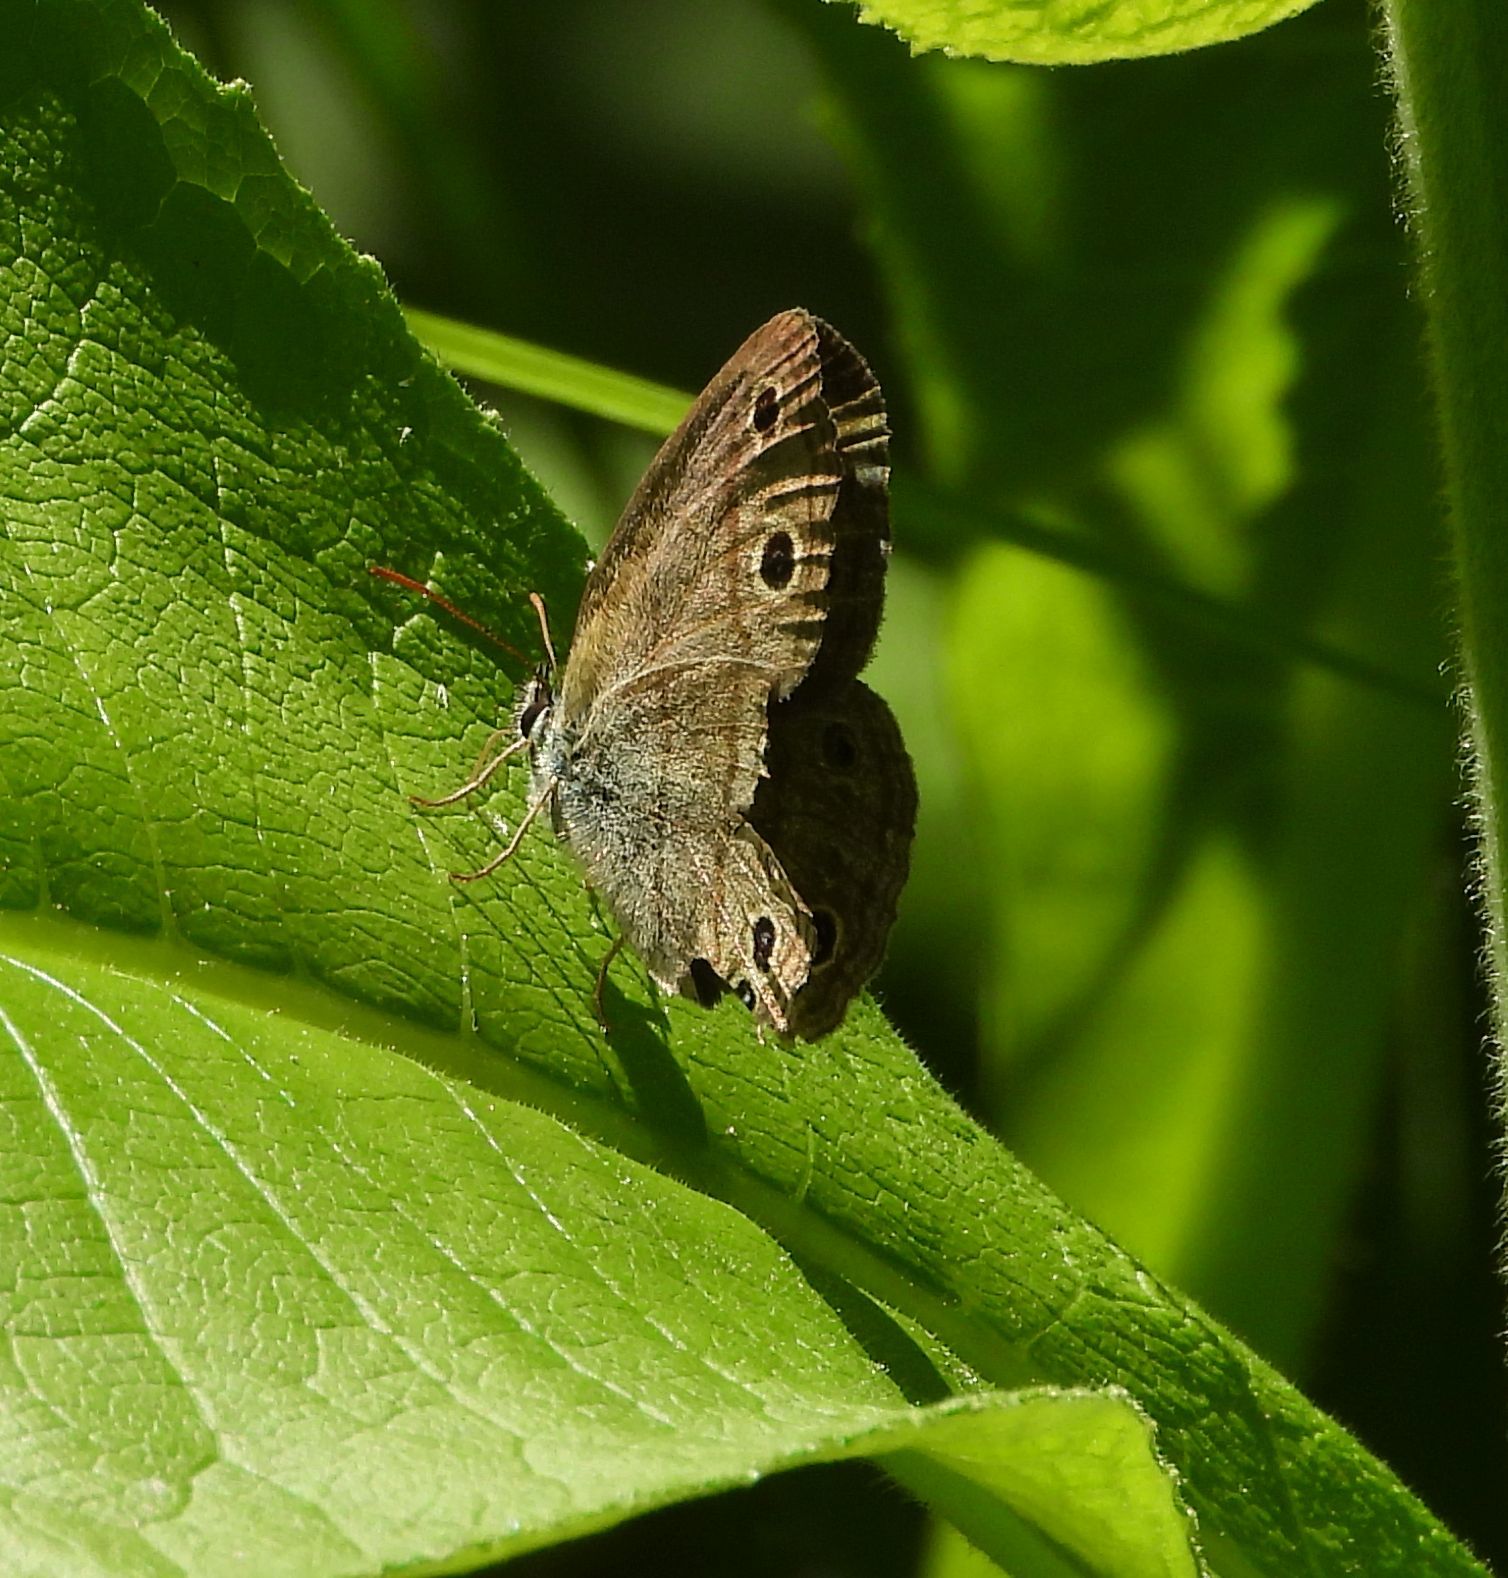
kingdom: Animalia
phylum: Arthropoda
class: Insecta
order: Lepidoptera
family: Nymphalidae
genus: Euptychia
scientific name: Euptychia cymela
